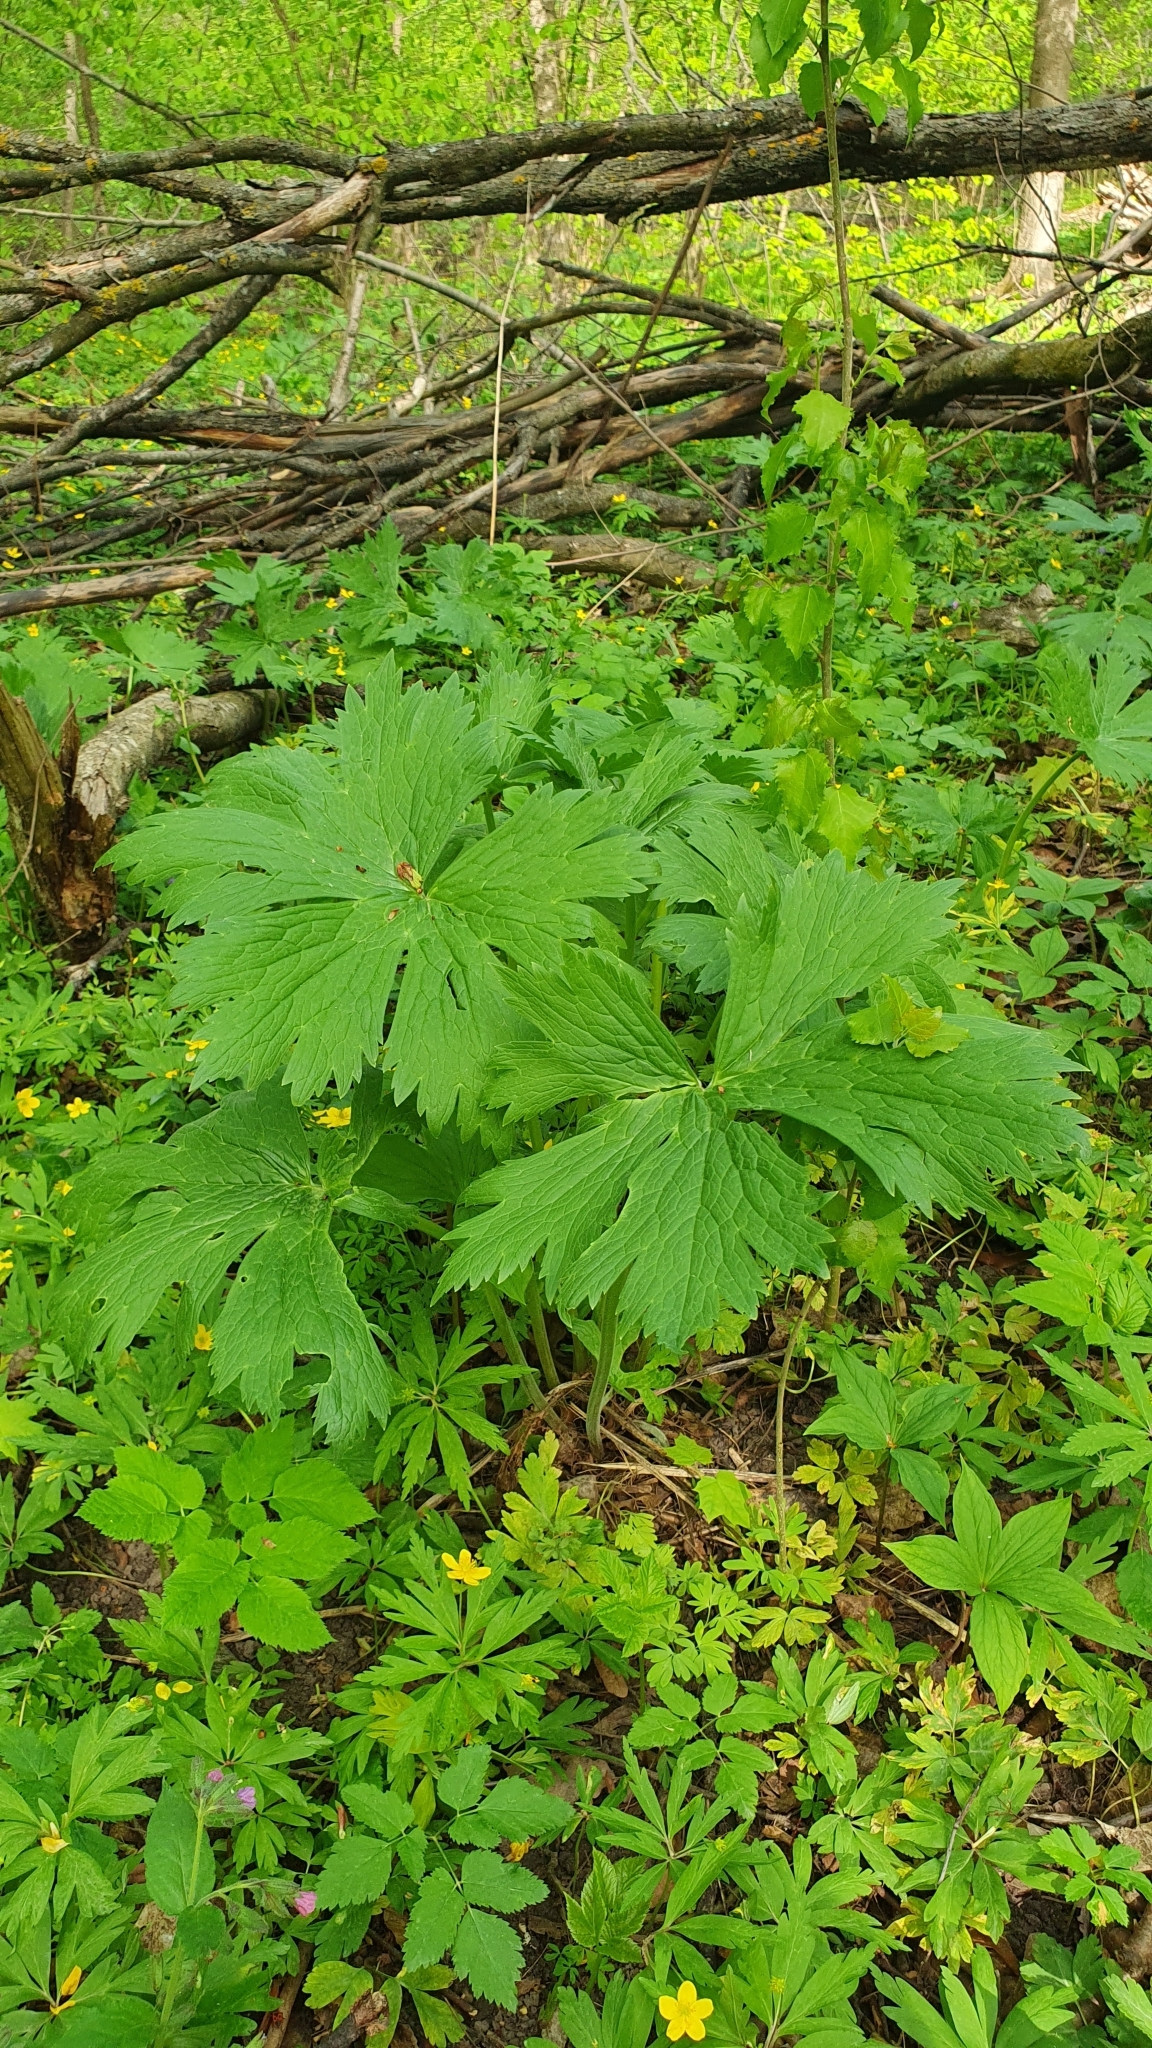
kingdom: Plantae
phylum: Tracheophyta
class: Magnoliopsida
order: Ranunculales
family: Ranunculaceae
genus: Aconitum
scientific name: Aconitum septentrionale
